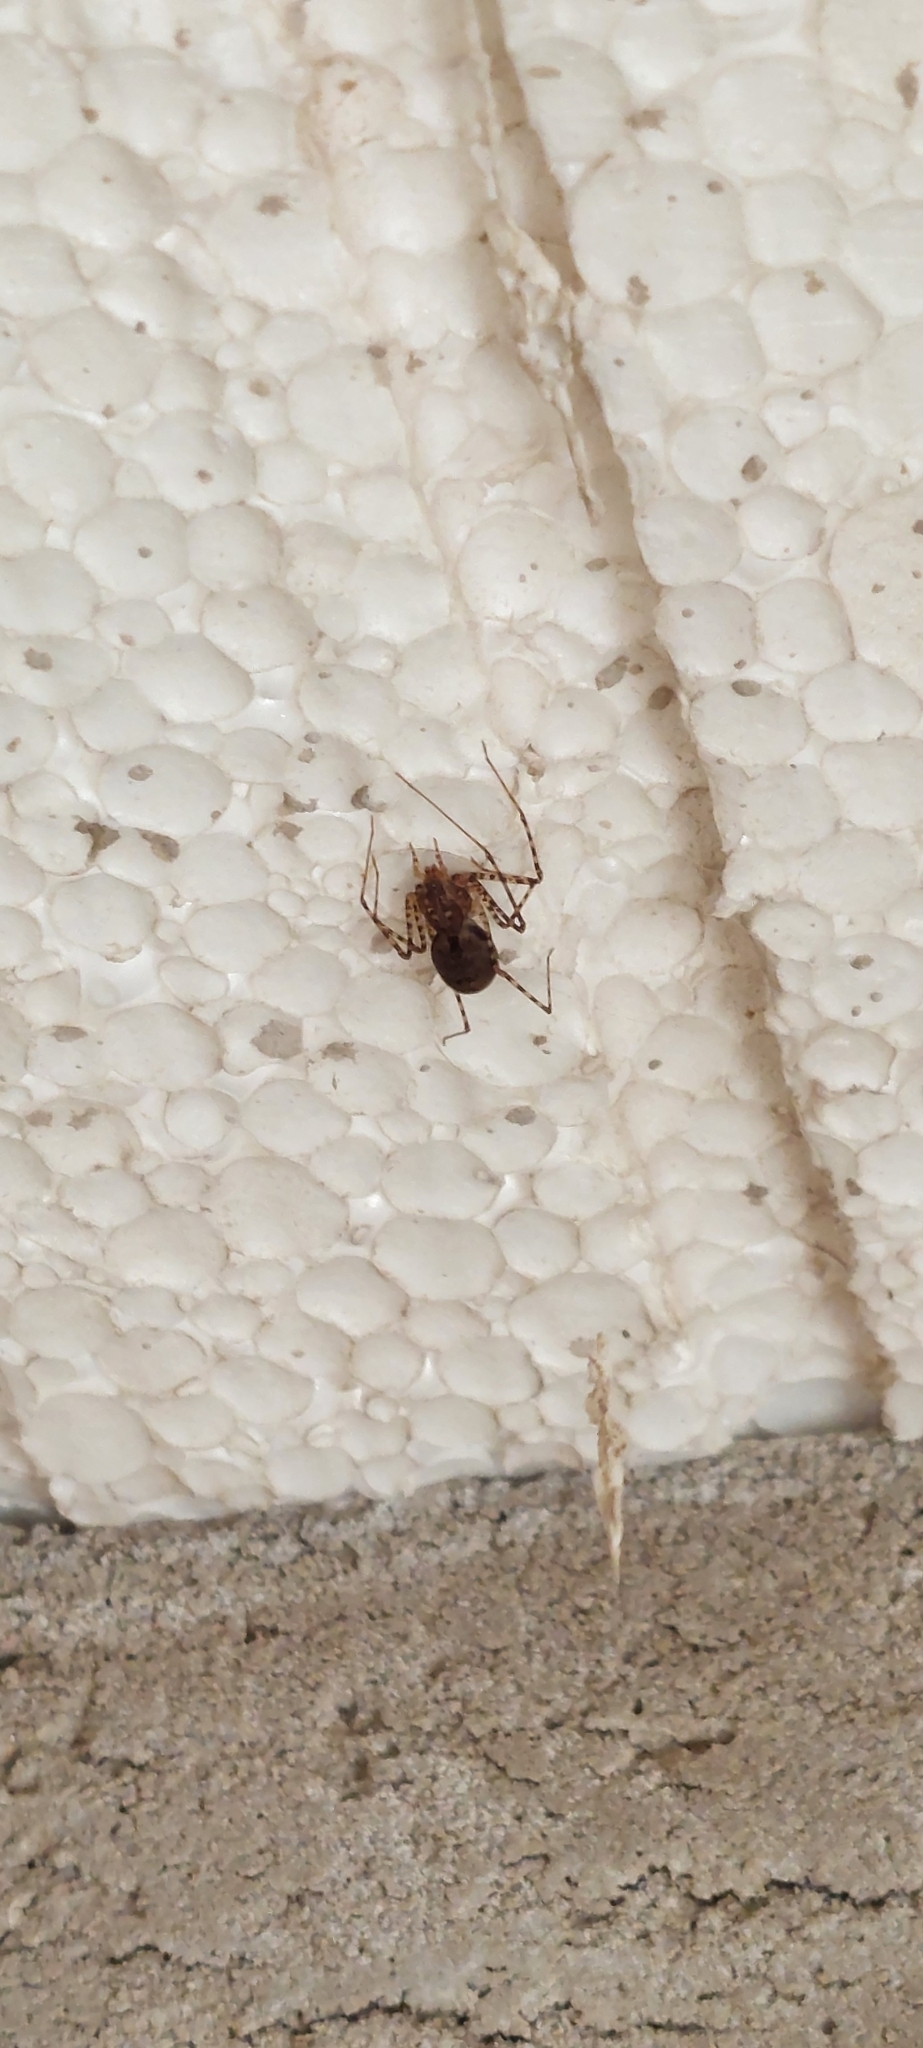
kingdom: Animalia
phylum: Arthropoda
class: Arachnida
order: Araneae
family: Scytodidae
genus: Scytodes
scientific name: Scytodes globula
